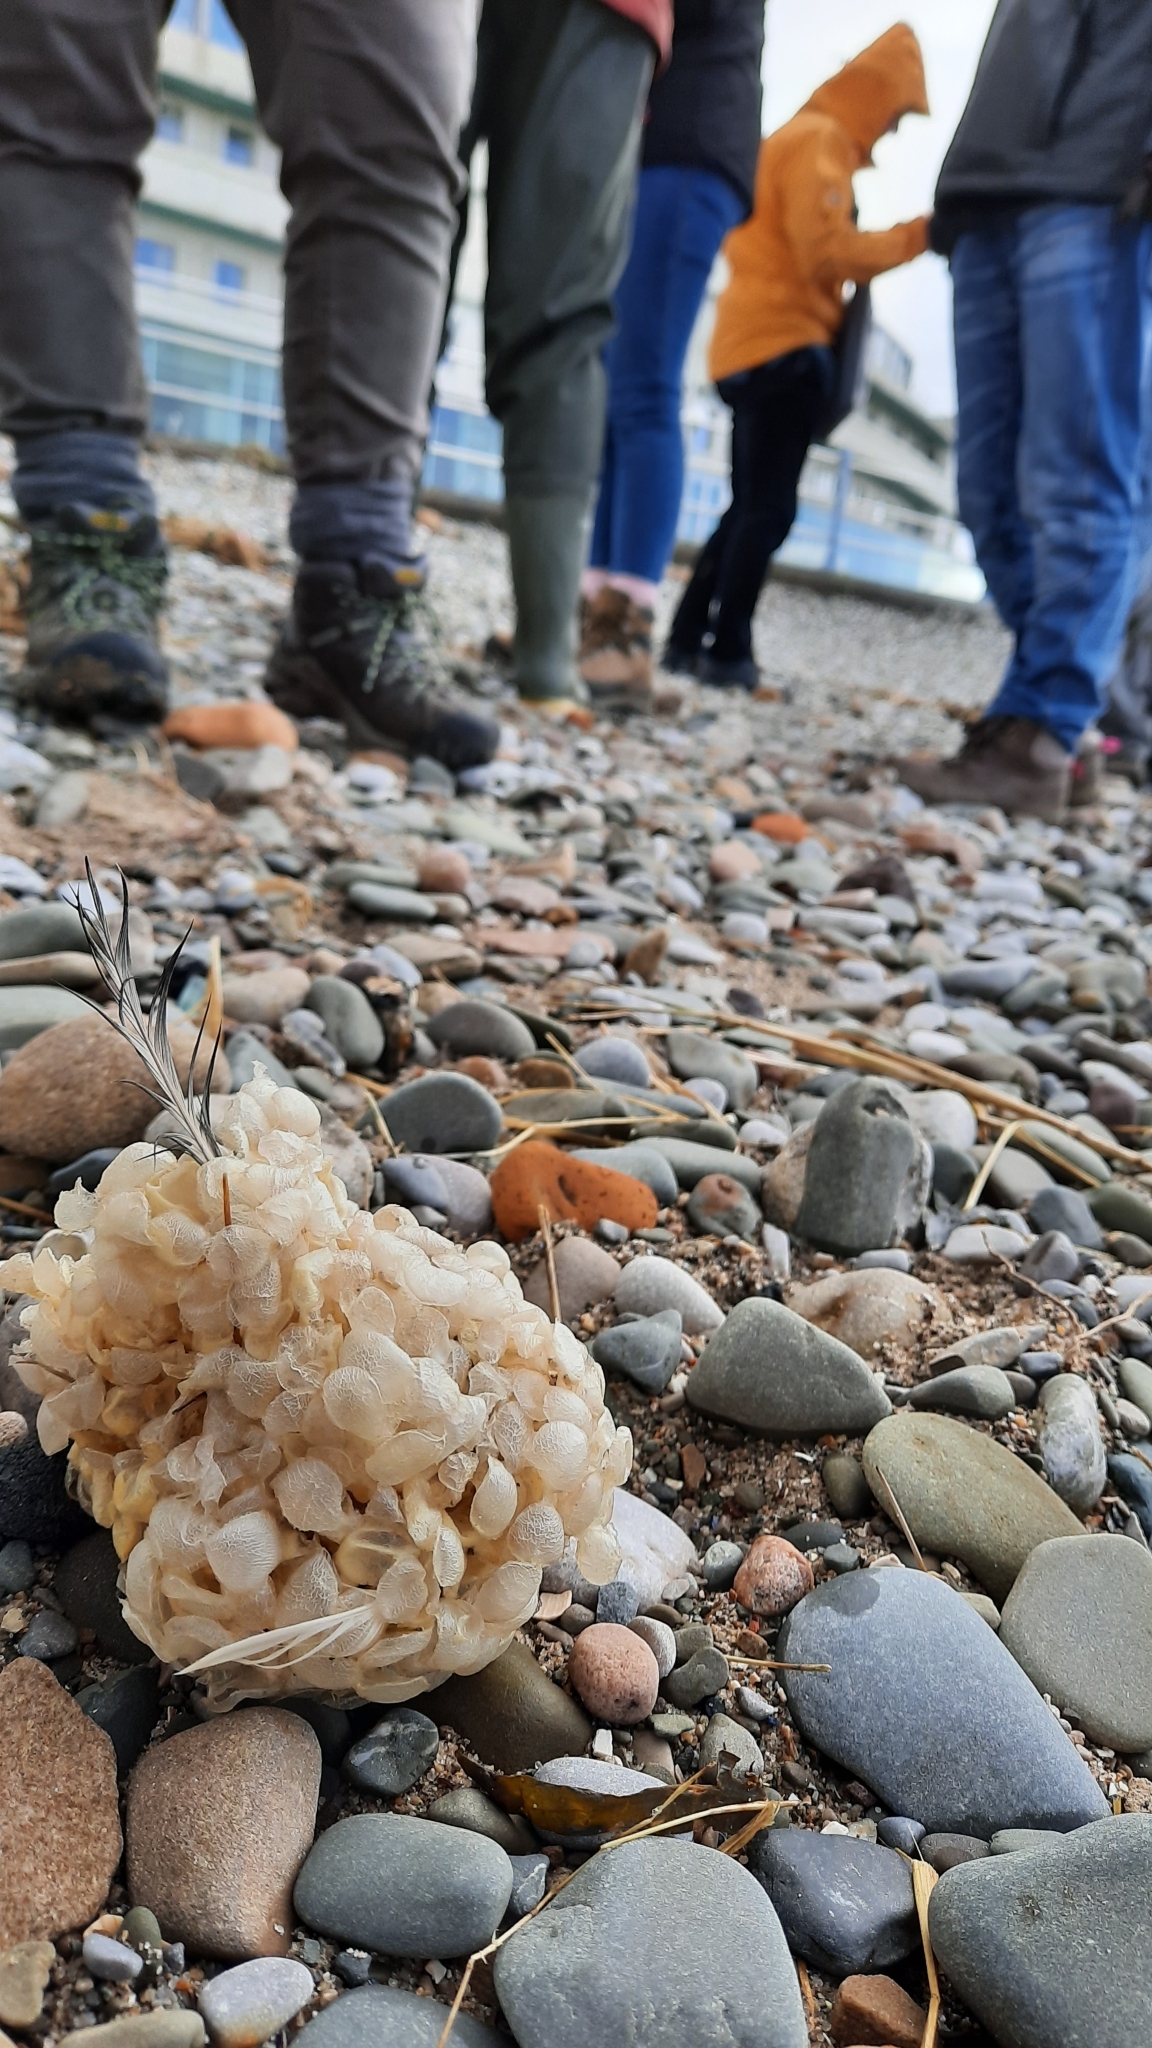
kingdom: Animalia
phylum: Mollusca
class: Gastropoda
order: Neogastropoda
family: Buccinidae
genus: Buccinum
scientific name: Buccinum undatum
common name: Common whelk
